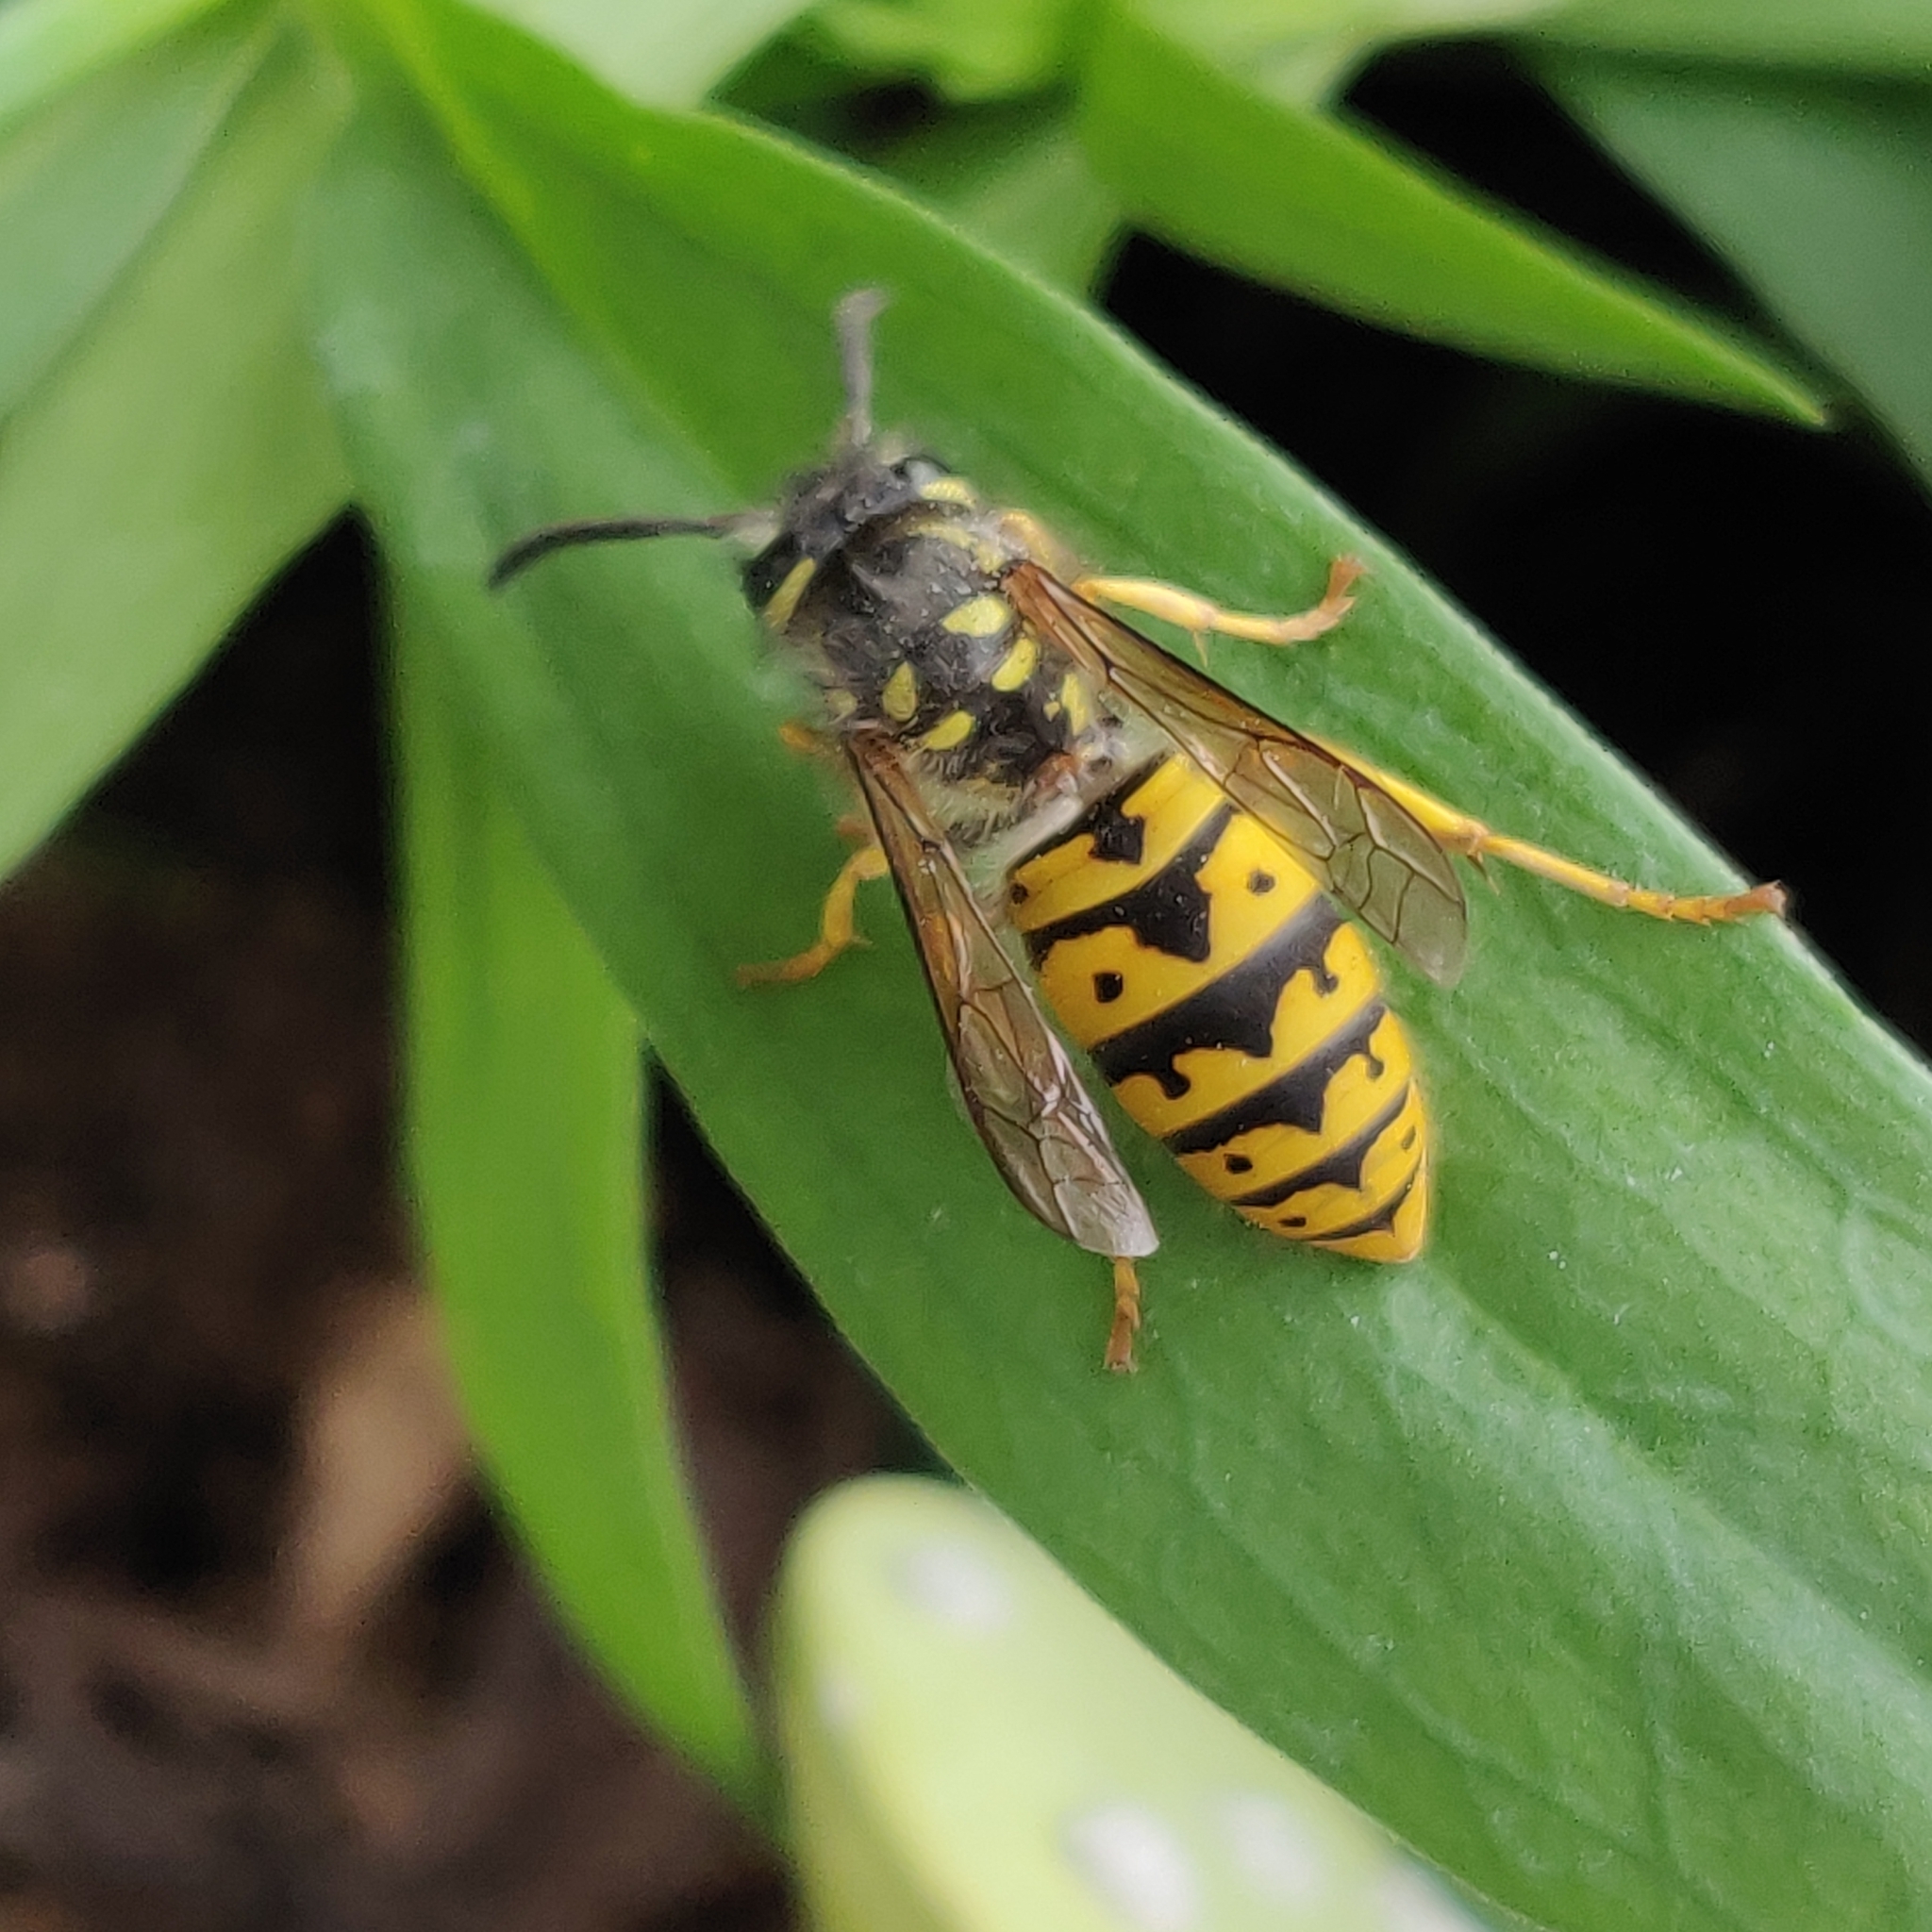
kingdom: Animalia
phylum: Arthropoda
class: Insecta
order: Hymenoptera
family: Vespidae
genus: Vespula
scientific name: Vespula germanica
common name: German wasp
